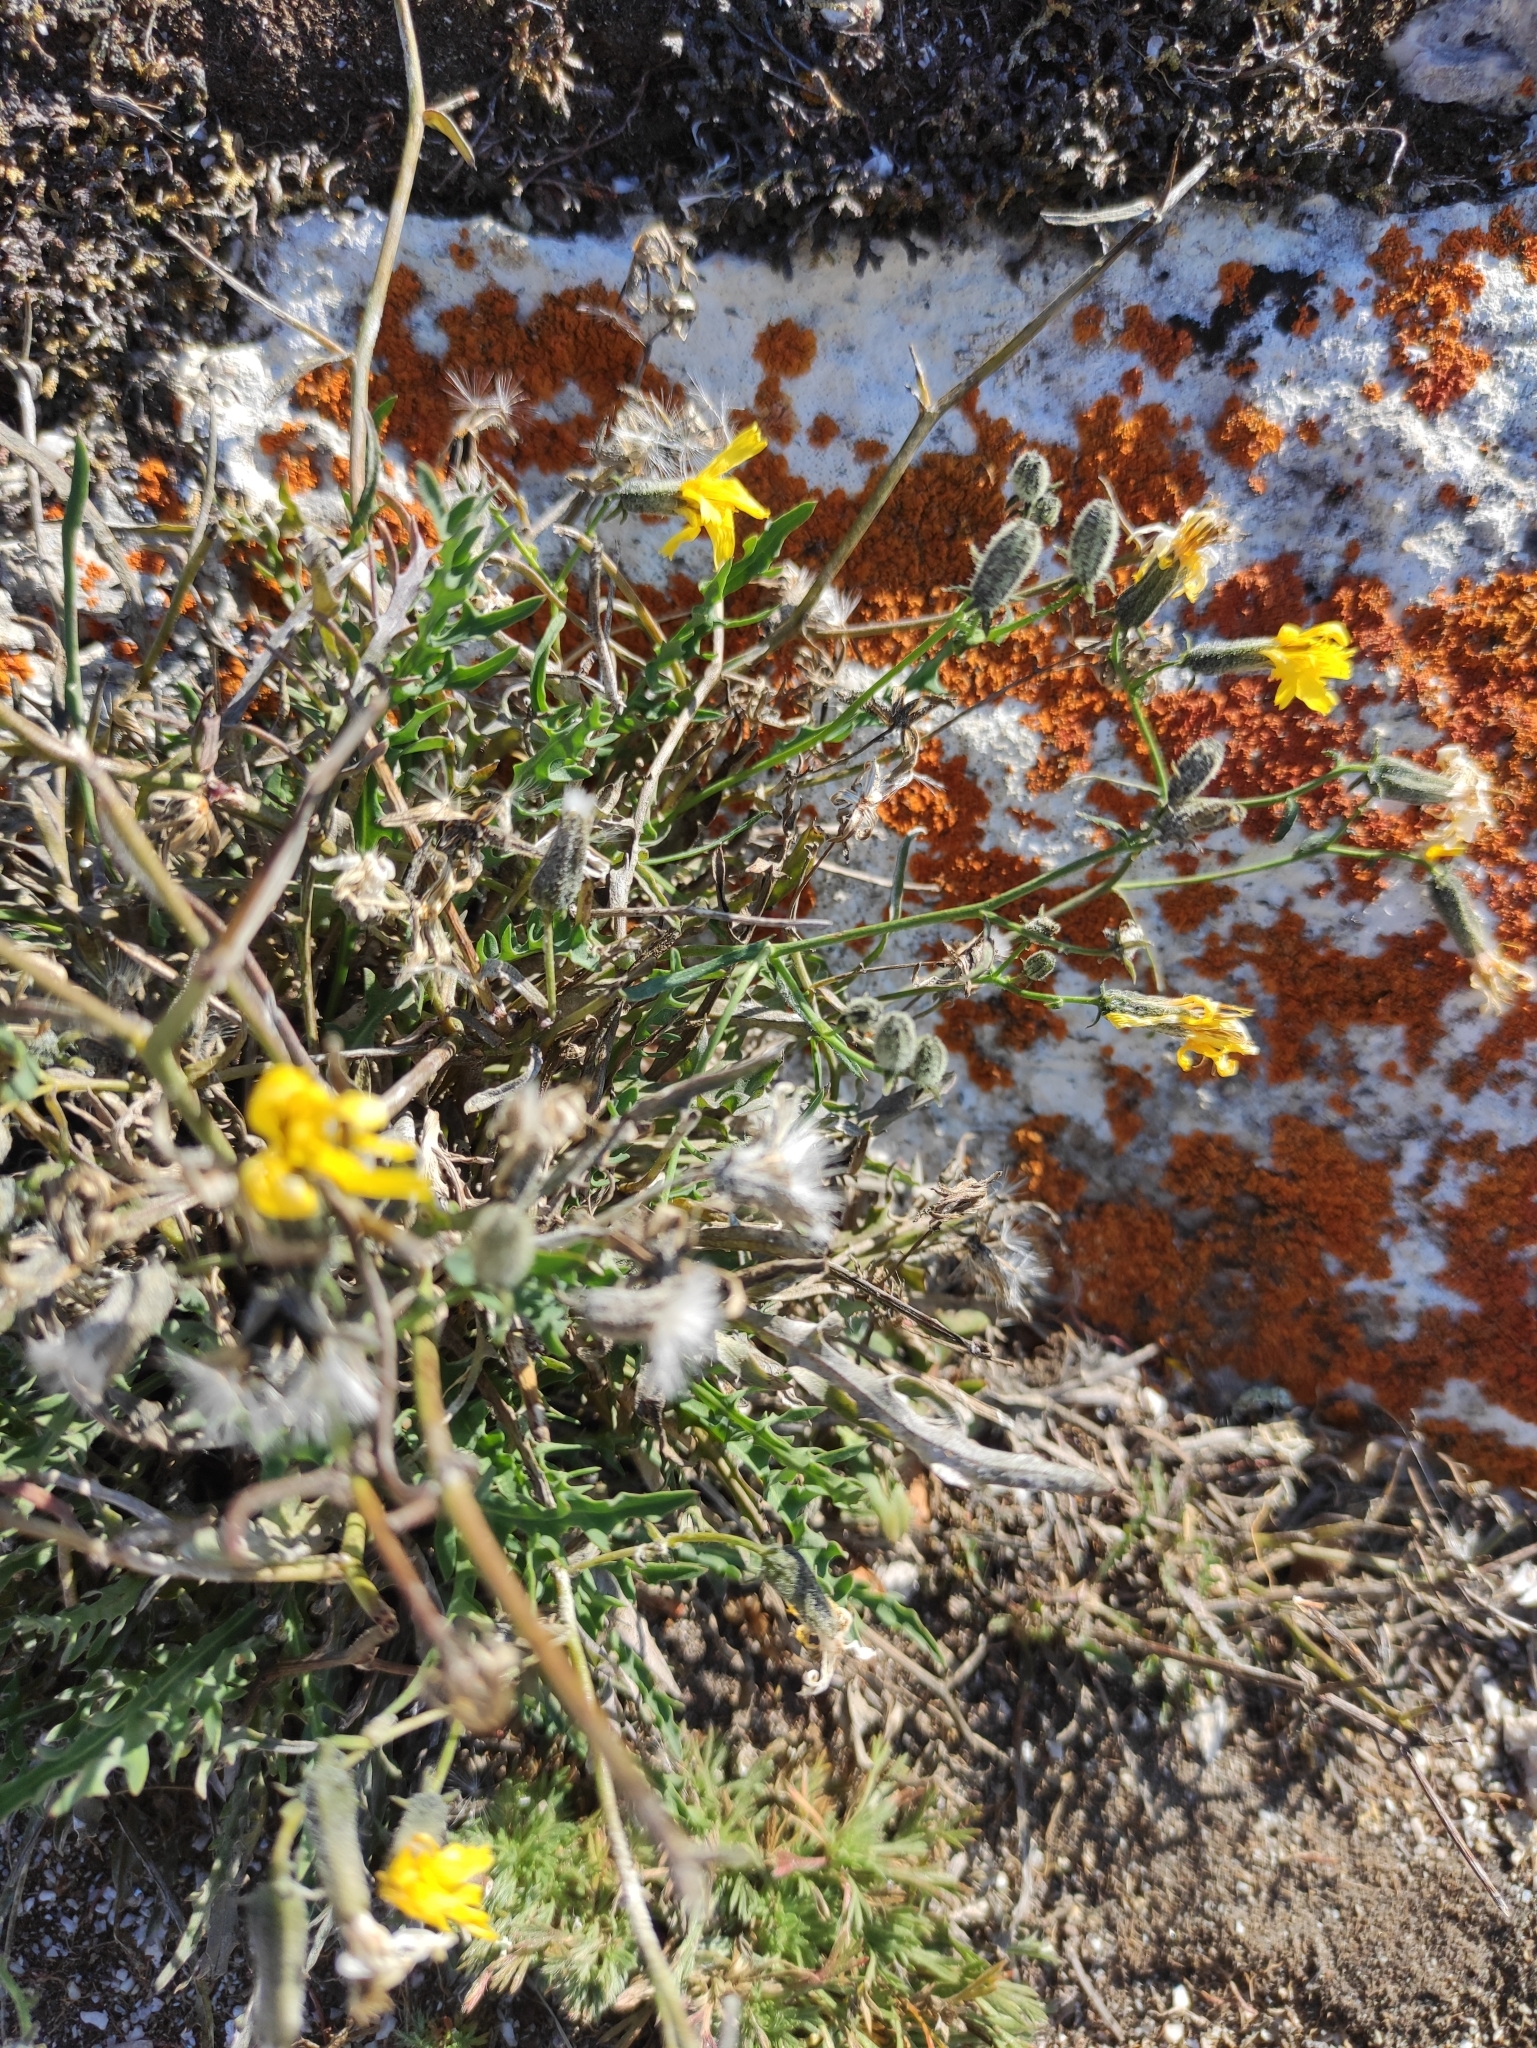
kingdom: Plantae
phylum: Tracheophyta
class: Magnoliopsida
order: Asterales
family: Asteraceae
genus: Crepidiastrum
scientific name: Crepidiastrum tenuifolium
